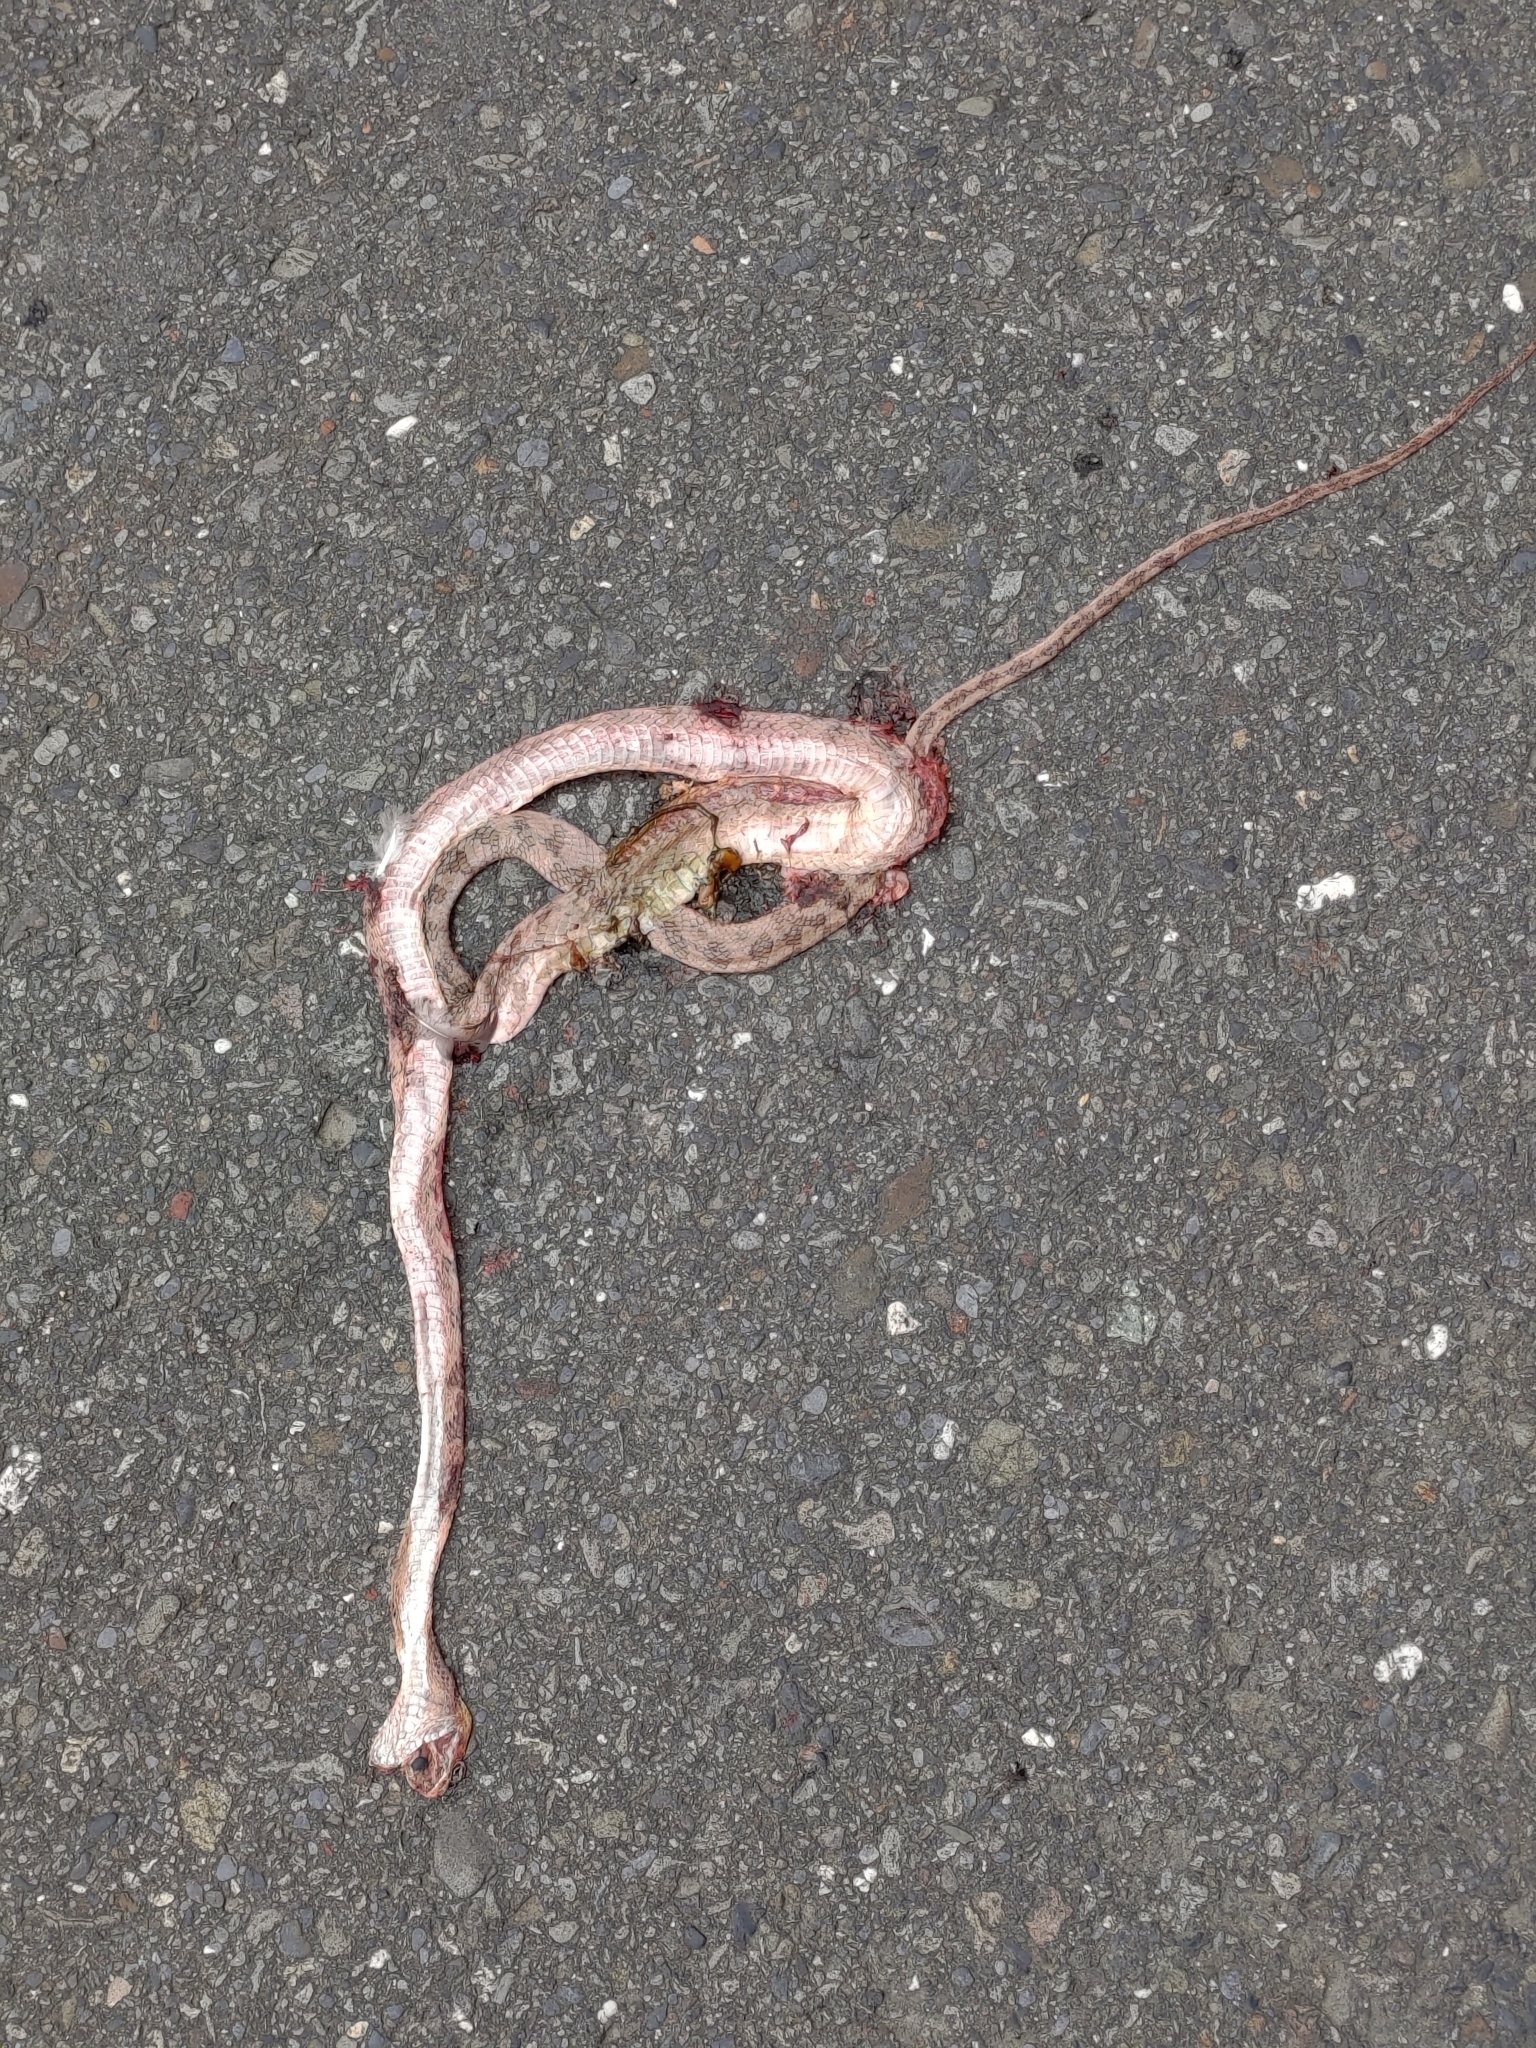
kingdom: Animalia
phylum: Chordata
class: Squamata
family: Colubridae
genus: Boiga
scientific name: Boiga kraepelini
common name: Kelung cat snake
